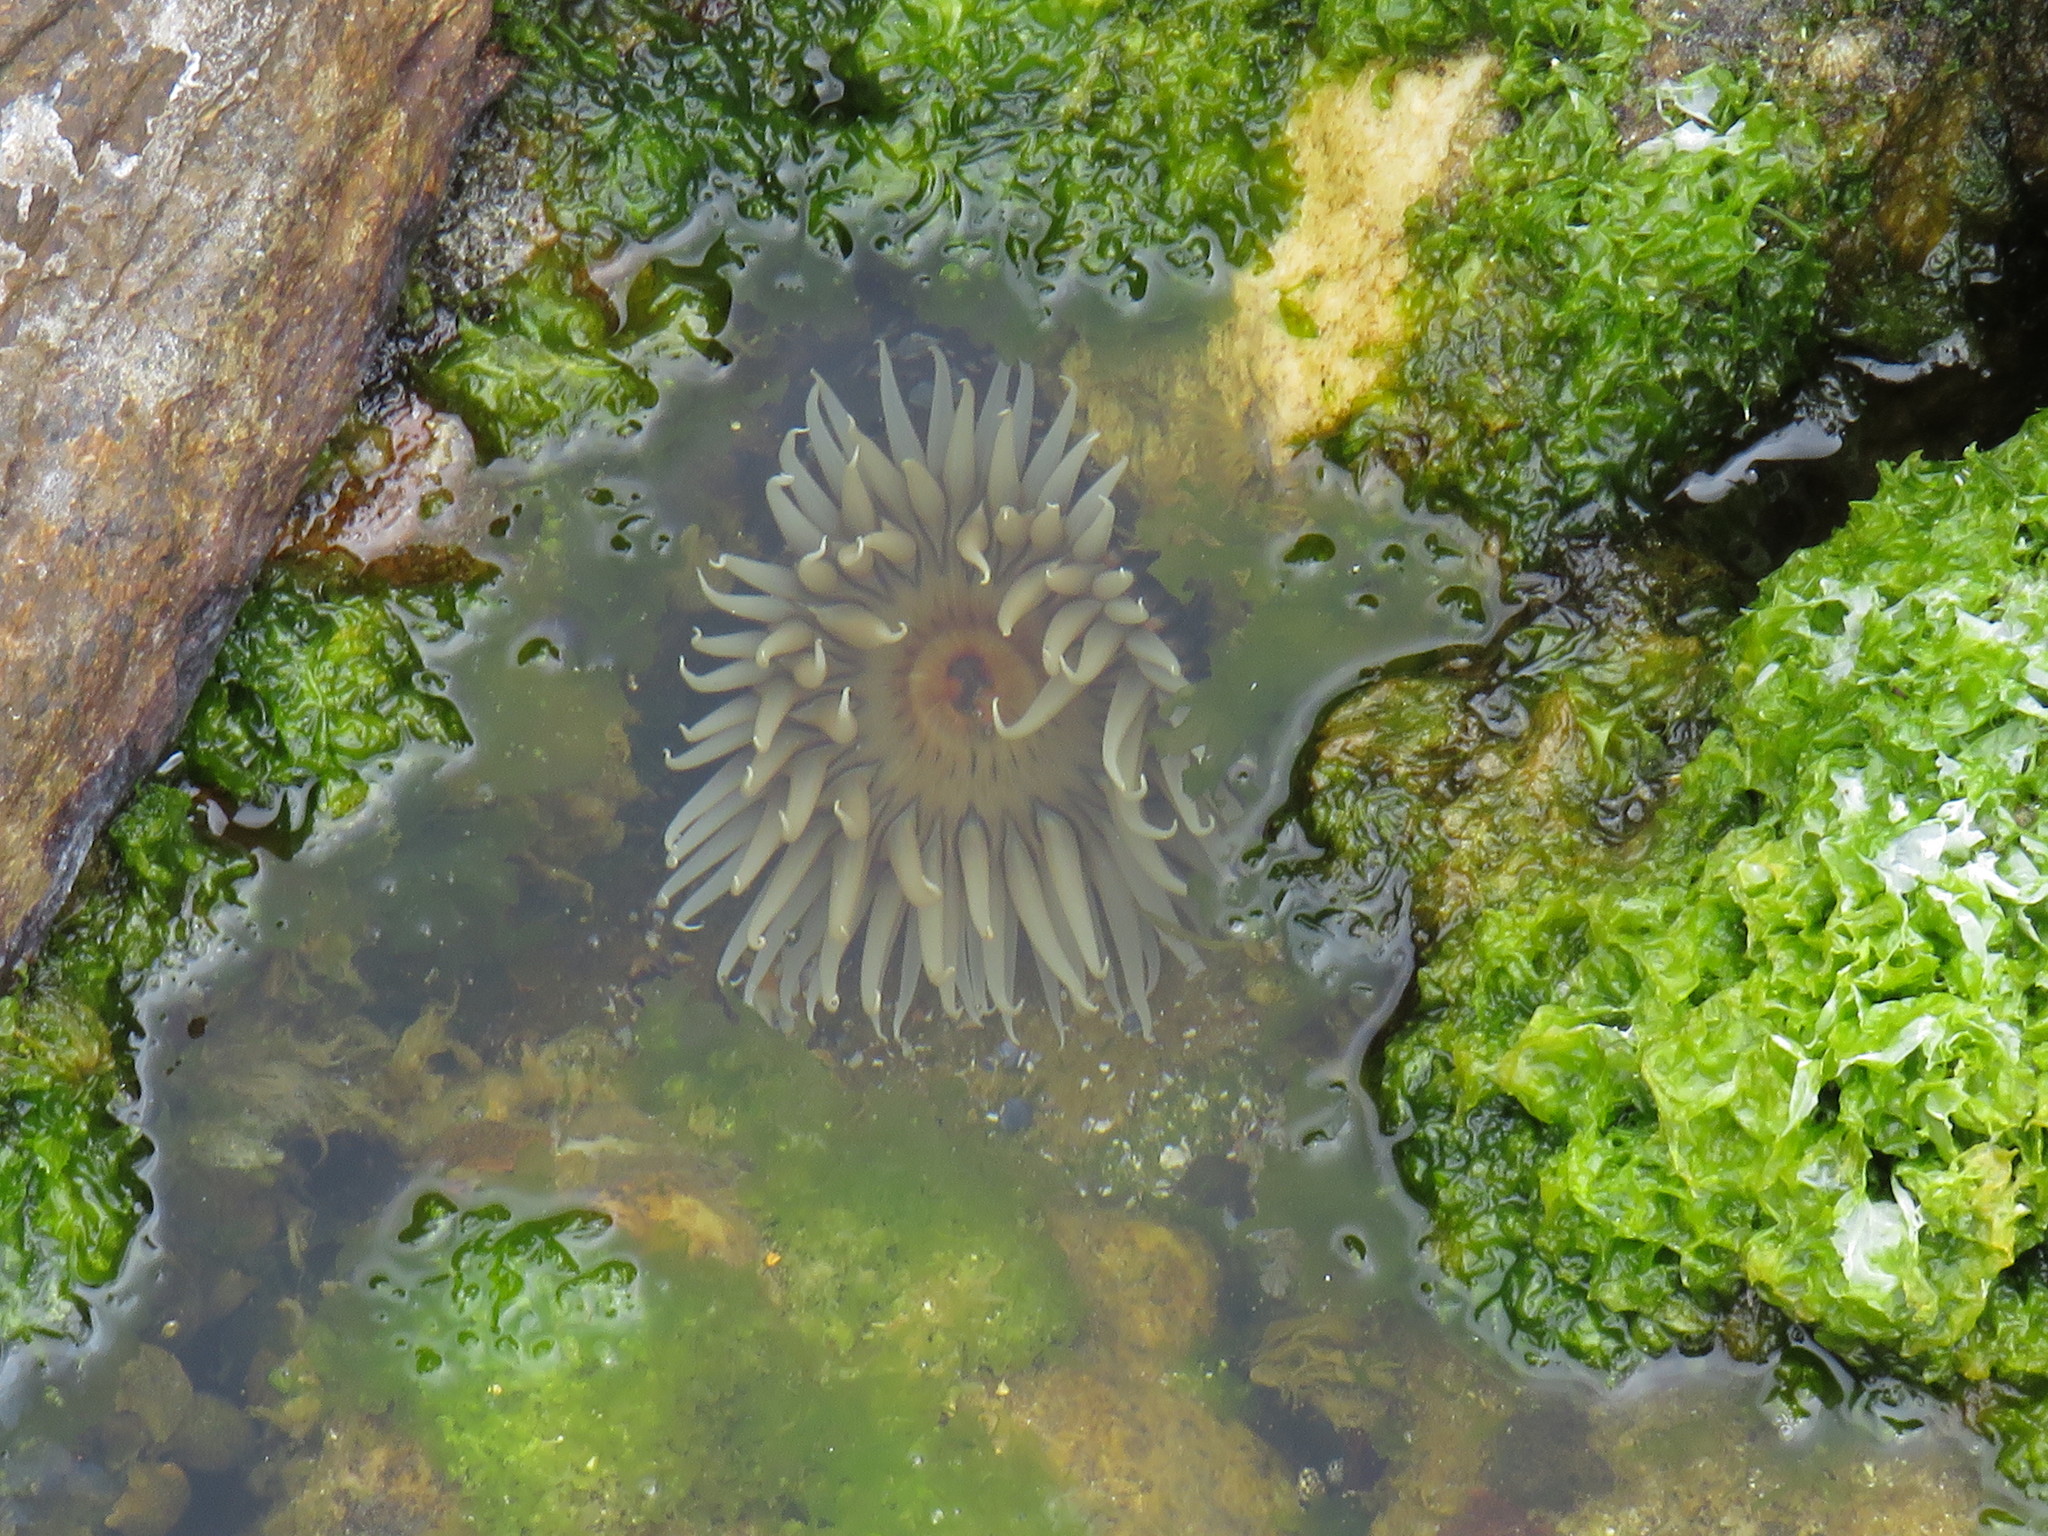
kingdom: Animalia
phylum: Cnidaria
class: Anthozoa
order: Actiniaria
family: Actiniidae
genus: Anthopleura
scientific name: Anthopleura michaelseni
